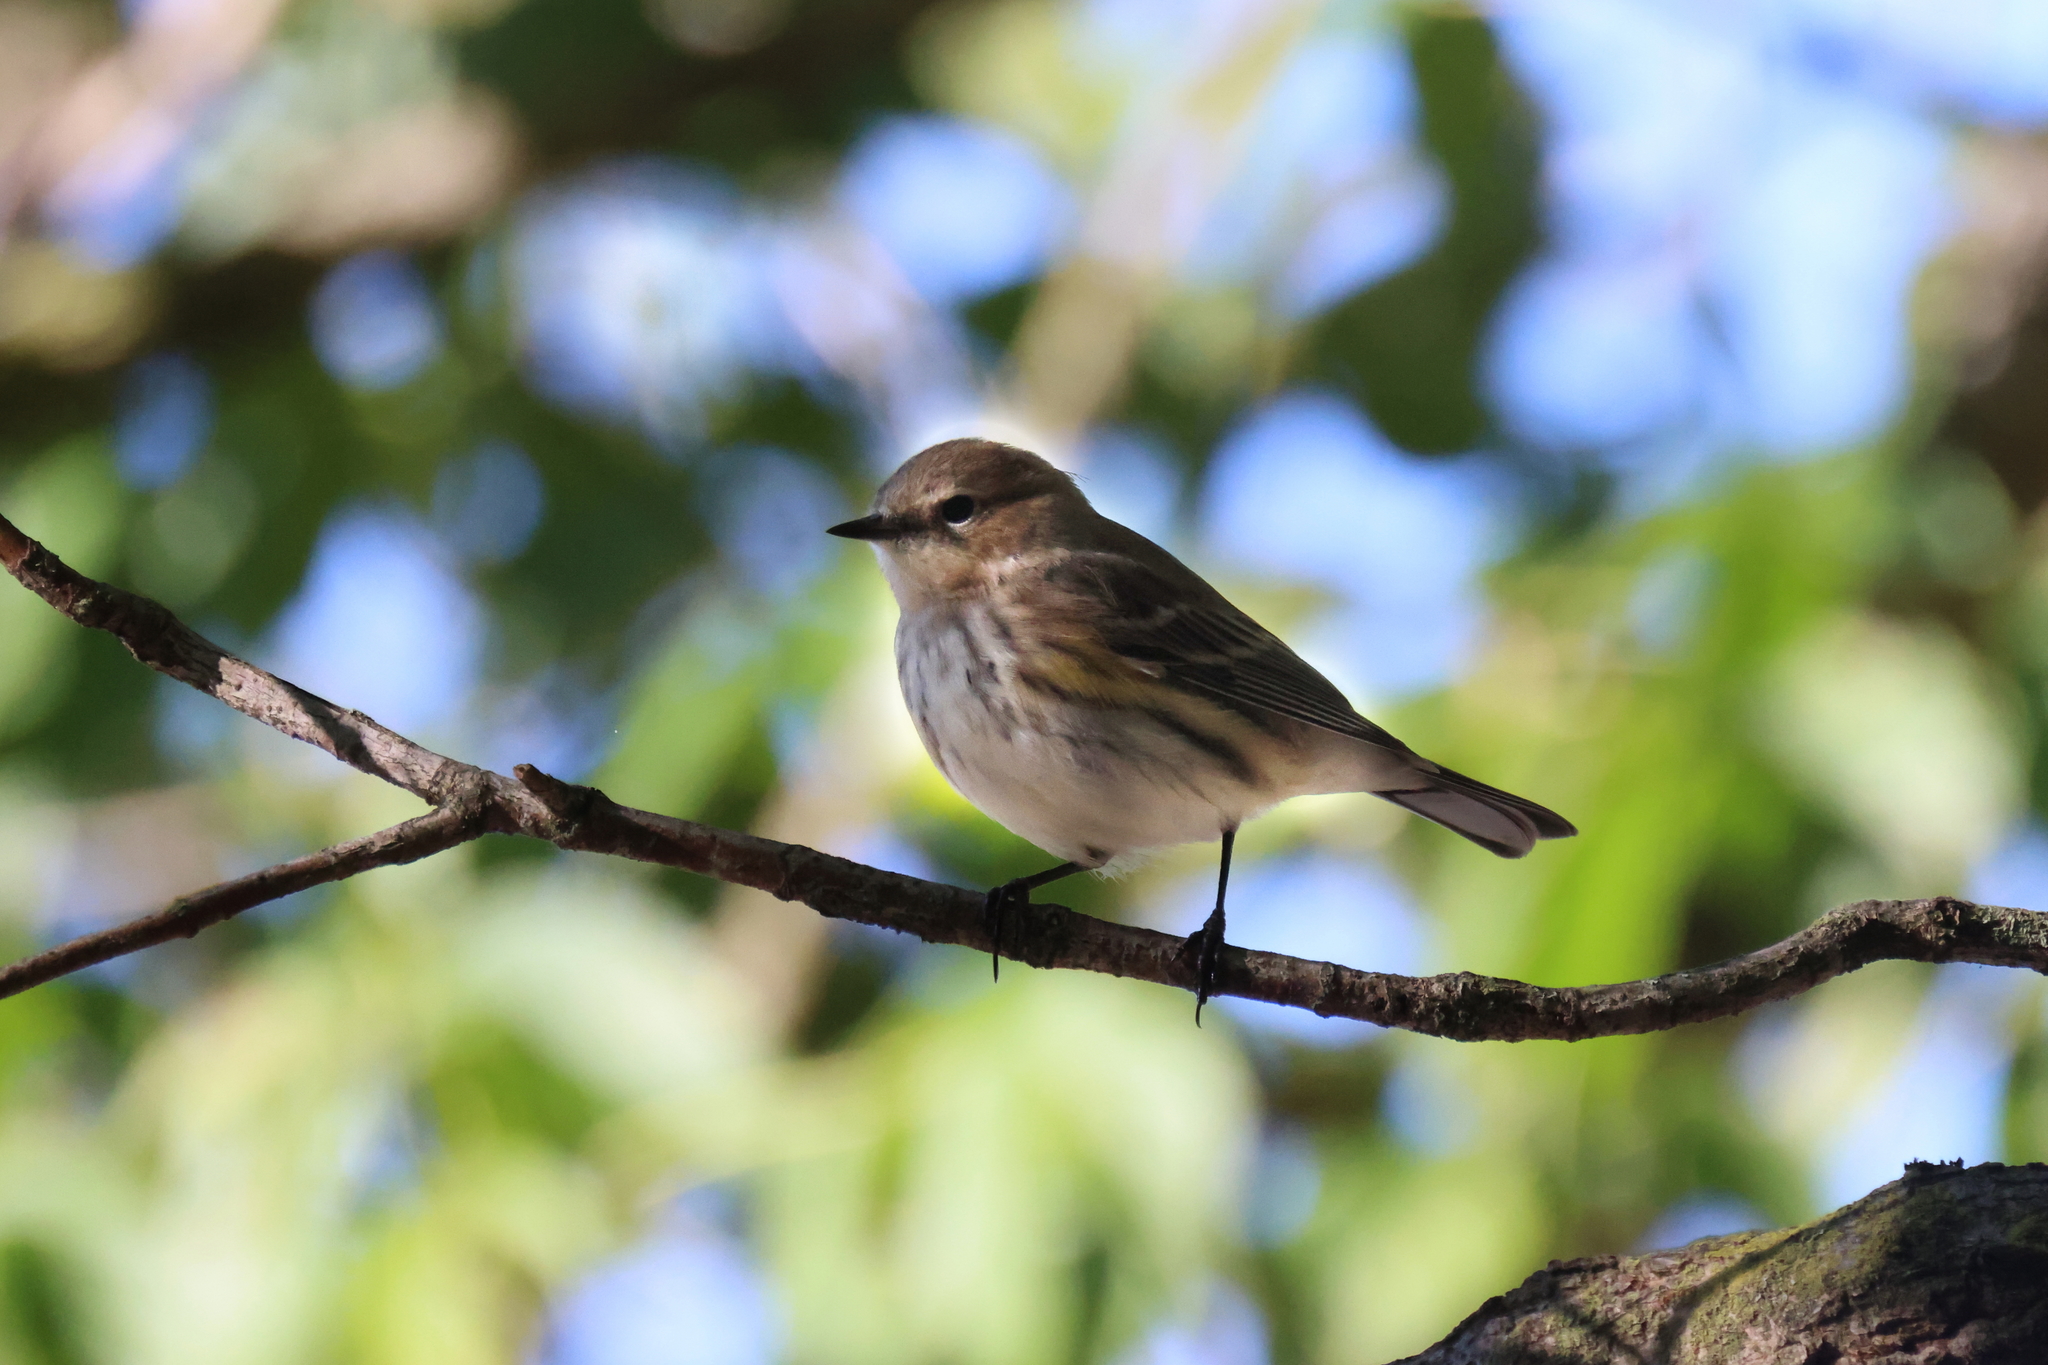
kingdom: Animalia
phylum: Chordata
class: Aves
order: Passeriformes
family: Parulidae
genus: Setophaga
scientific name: Setophaga coronata
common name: Myrtle warbler
